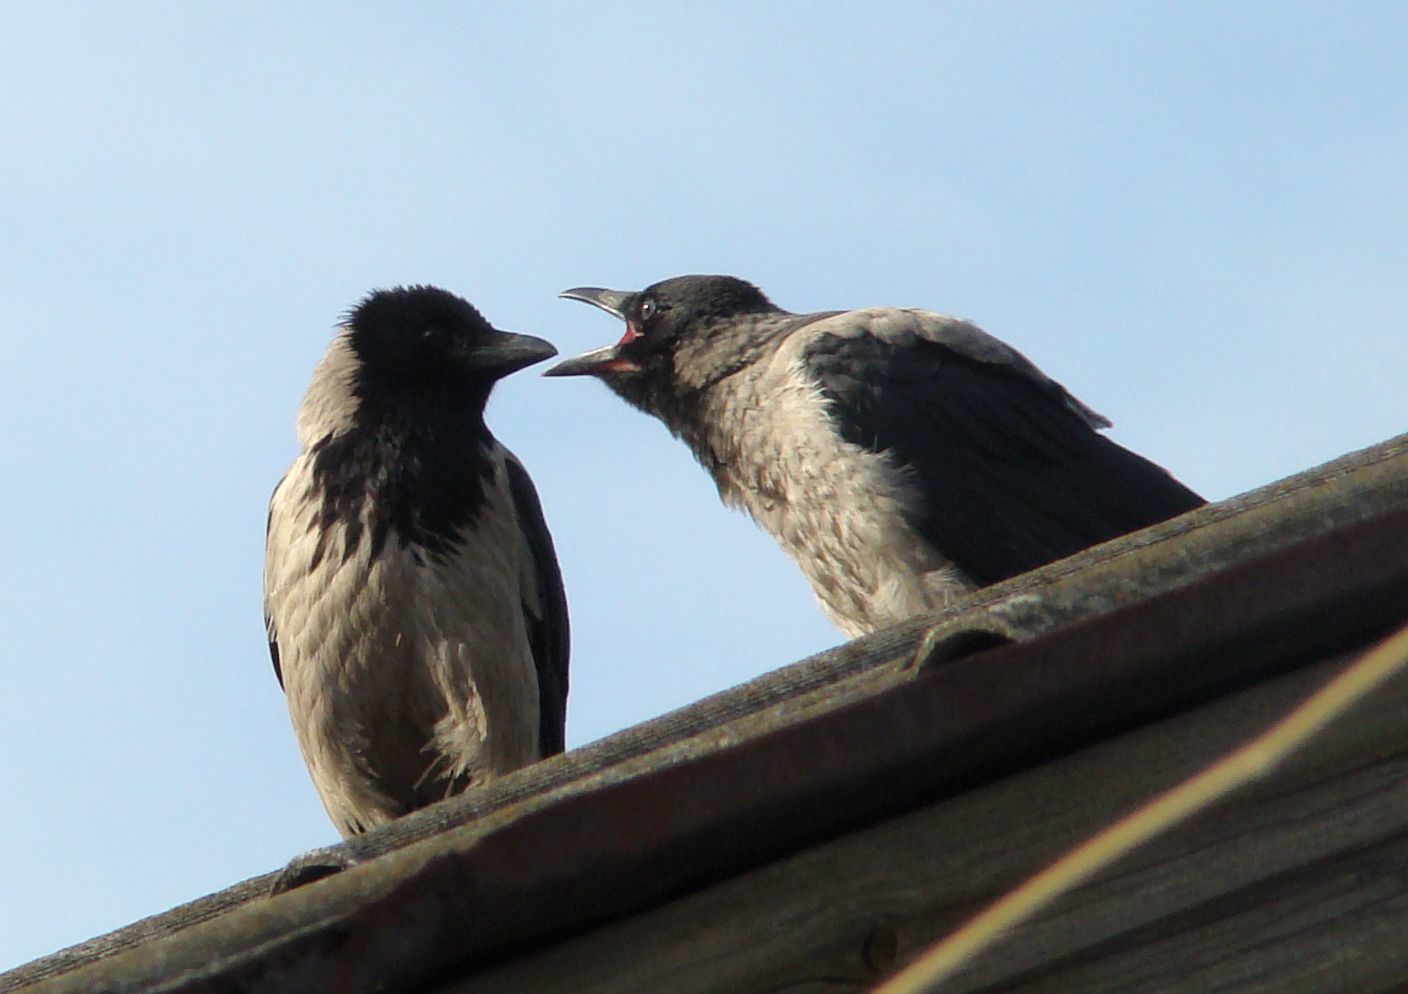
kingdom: Animalia
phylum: Chordata
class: Aves
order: Passeriformes
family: Corvidae
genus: Corvus
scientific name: Corvus cornix
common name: Hooded crow
